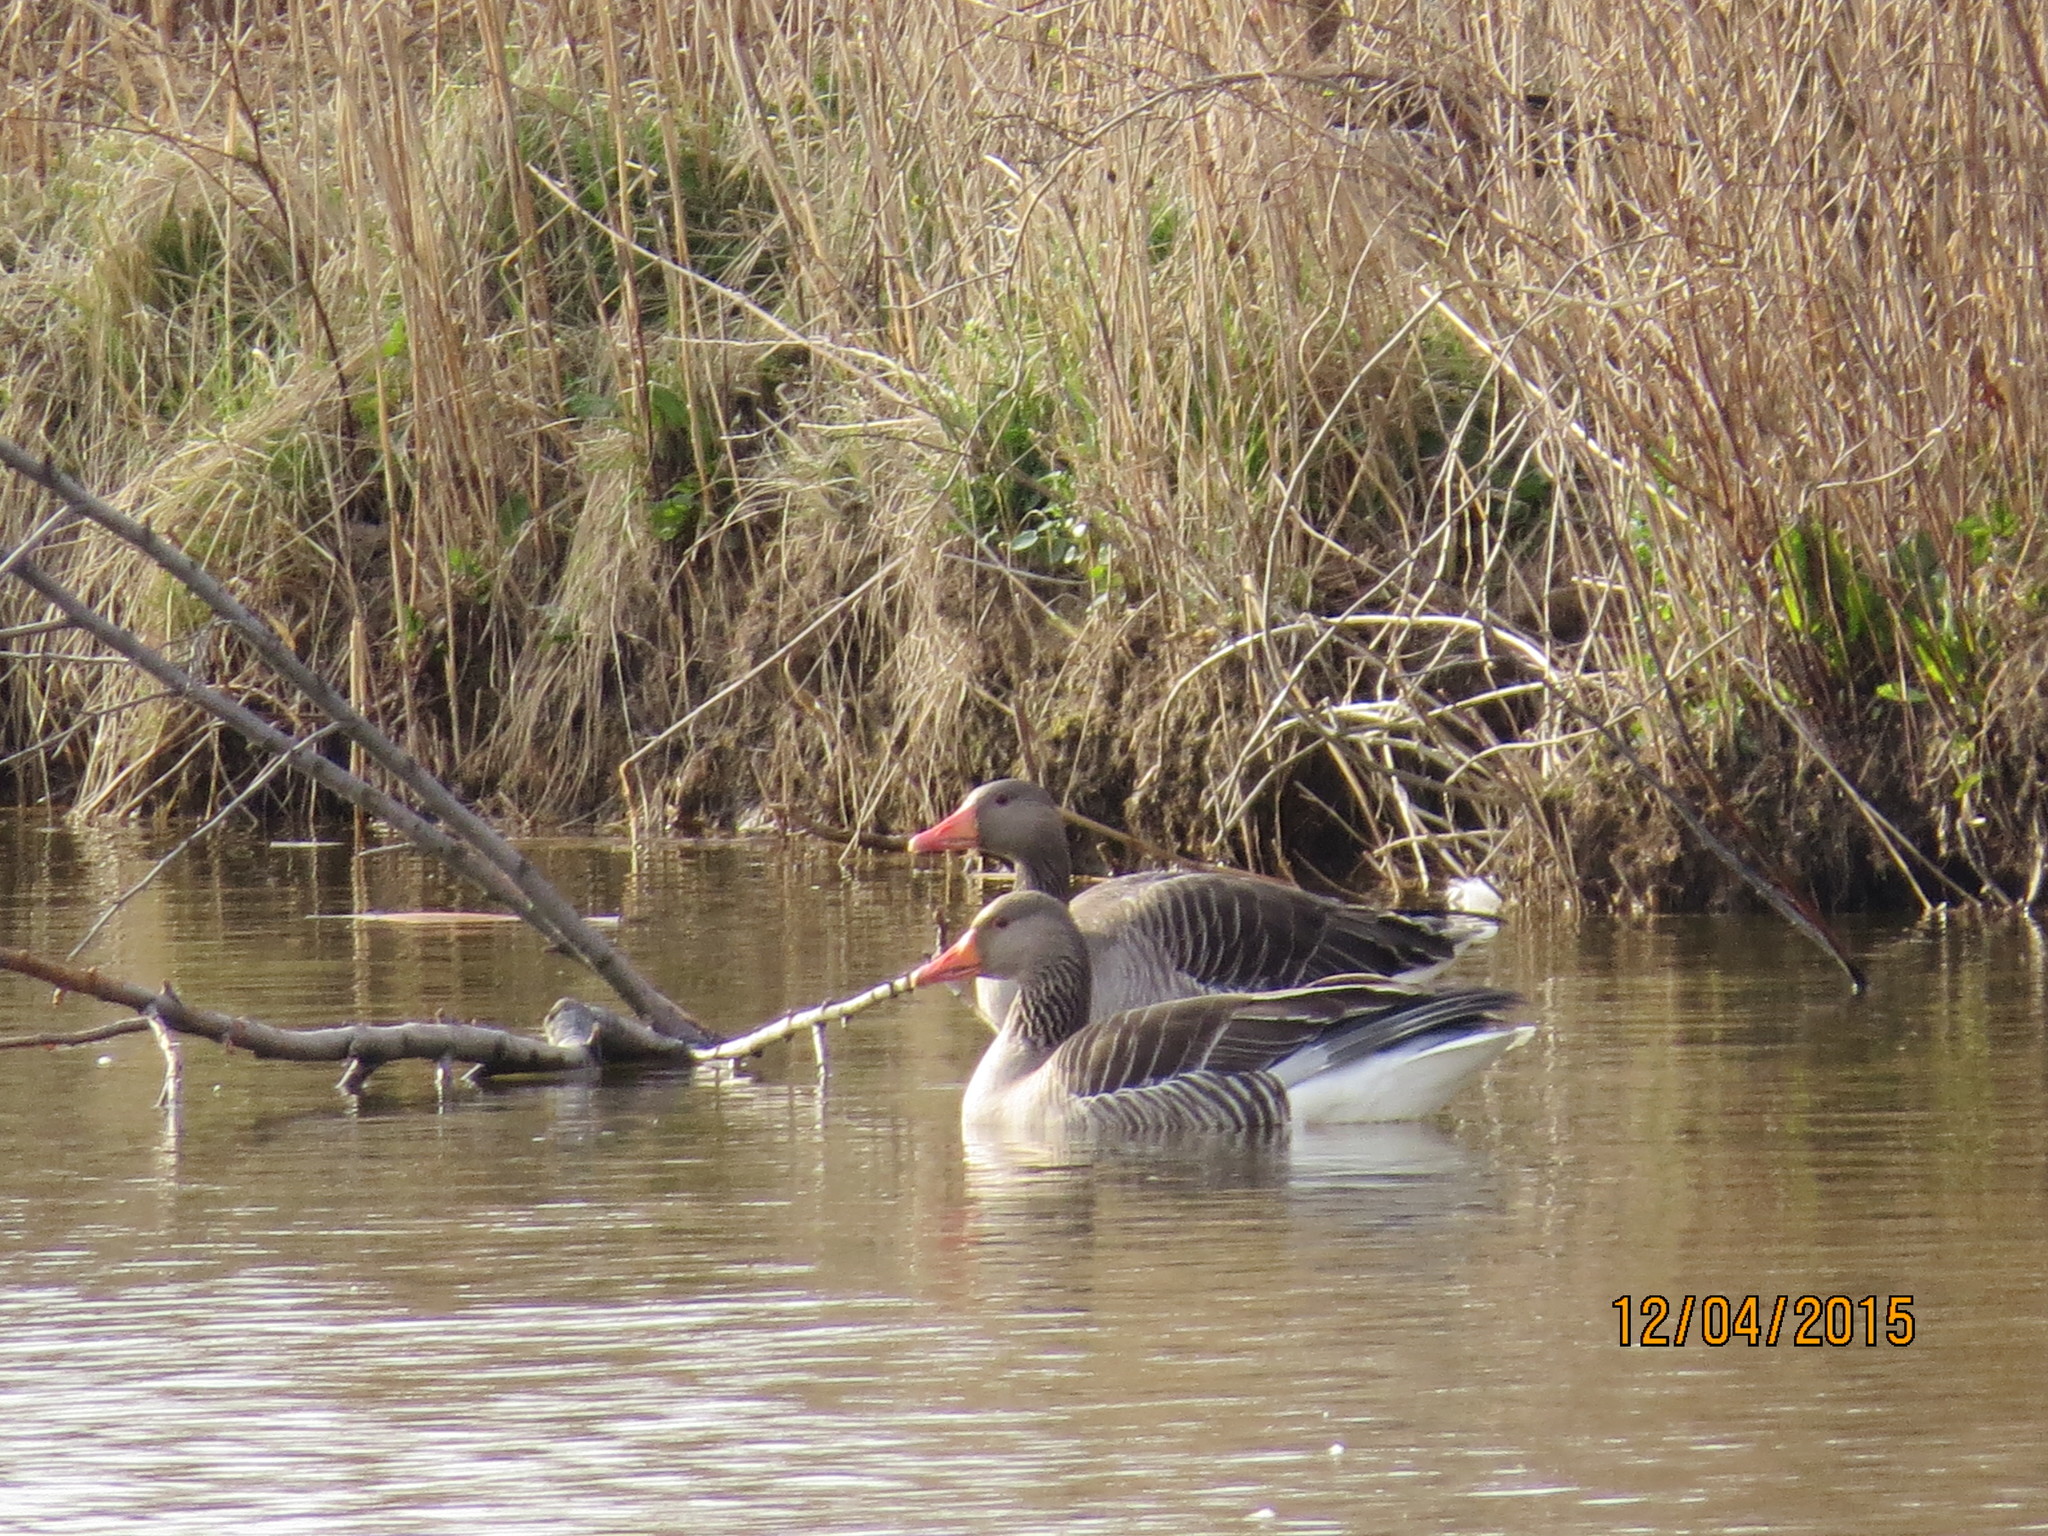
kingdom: Animalia
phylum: Chordata
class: Aves
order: Anseriformes
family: Anatidae
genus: Anser
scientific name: Anser anser
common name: Greylag goose
